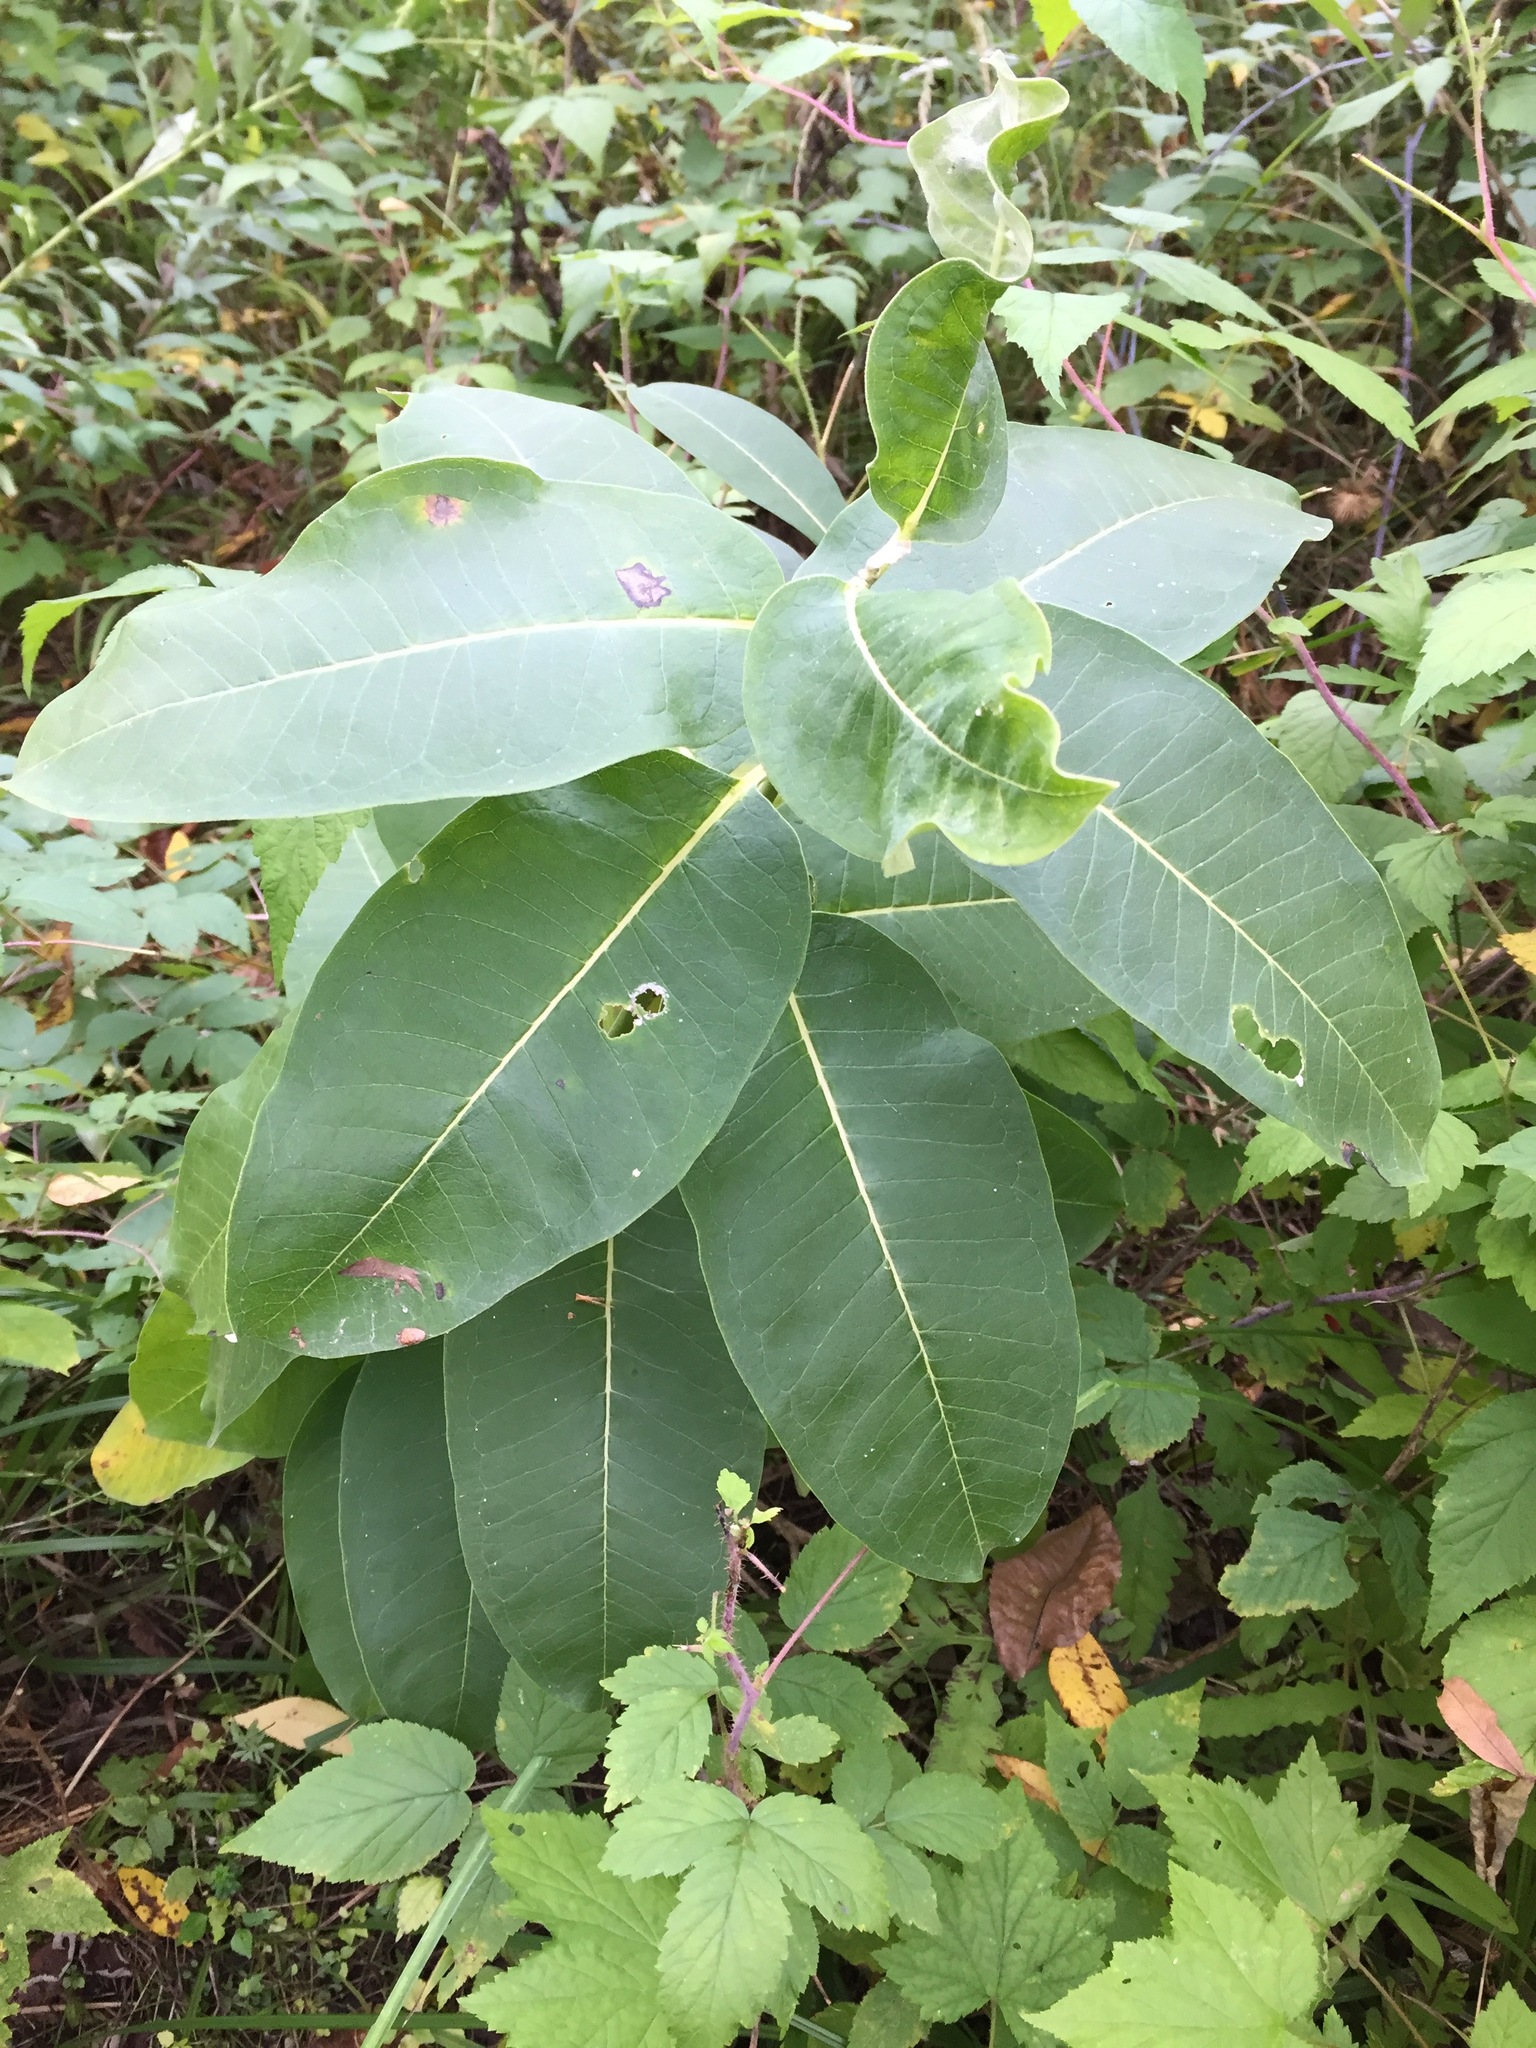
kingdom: Plantae
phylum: Tracheophyta
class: Magnoliopsida
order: Gentianales
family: Apocynaceae
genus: Asclepias
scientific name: Asclepias syriaca
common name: Common milkweed
